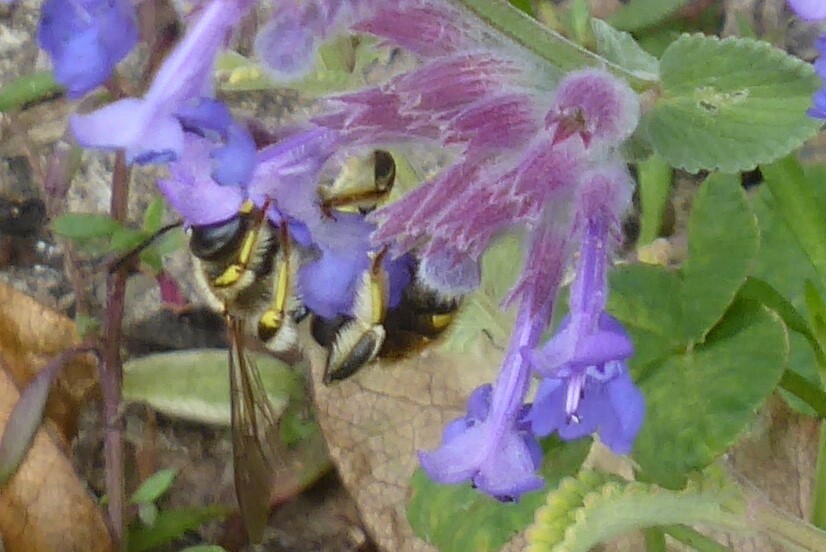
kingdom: Animalia
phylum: Arthropoda
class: Insecta
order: Hymenoptera
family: Megachilidae
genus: Anthidium
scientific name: Anthidium manicatum
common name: Wool carder bee
